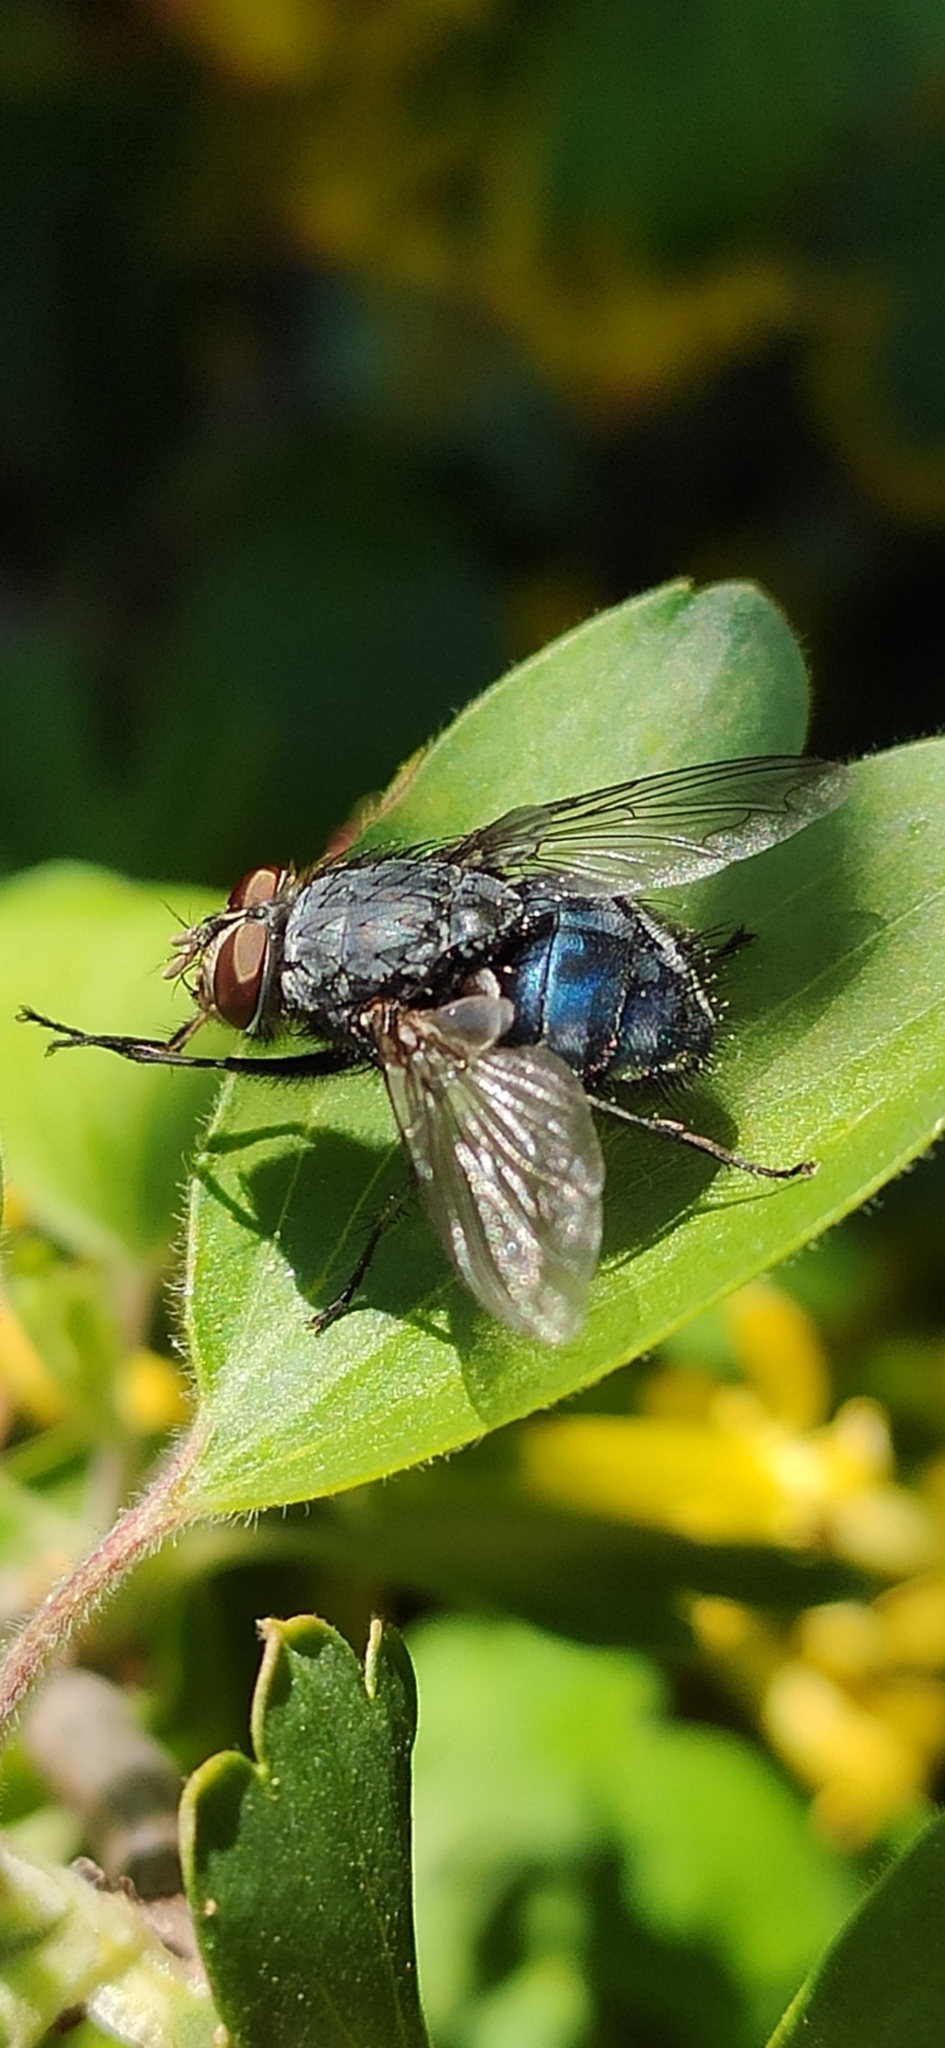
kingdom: Animalia
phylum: Arthropoda
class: Insecta
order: Diptera
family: Calliphoridae
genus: Calliphora
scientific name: Calliphora vicina
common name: Common blow flie
